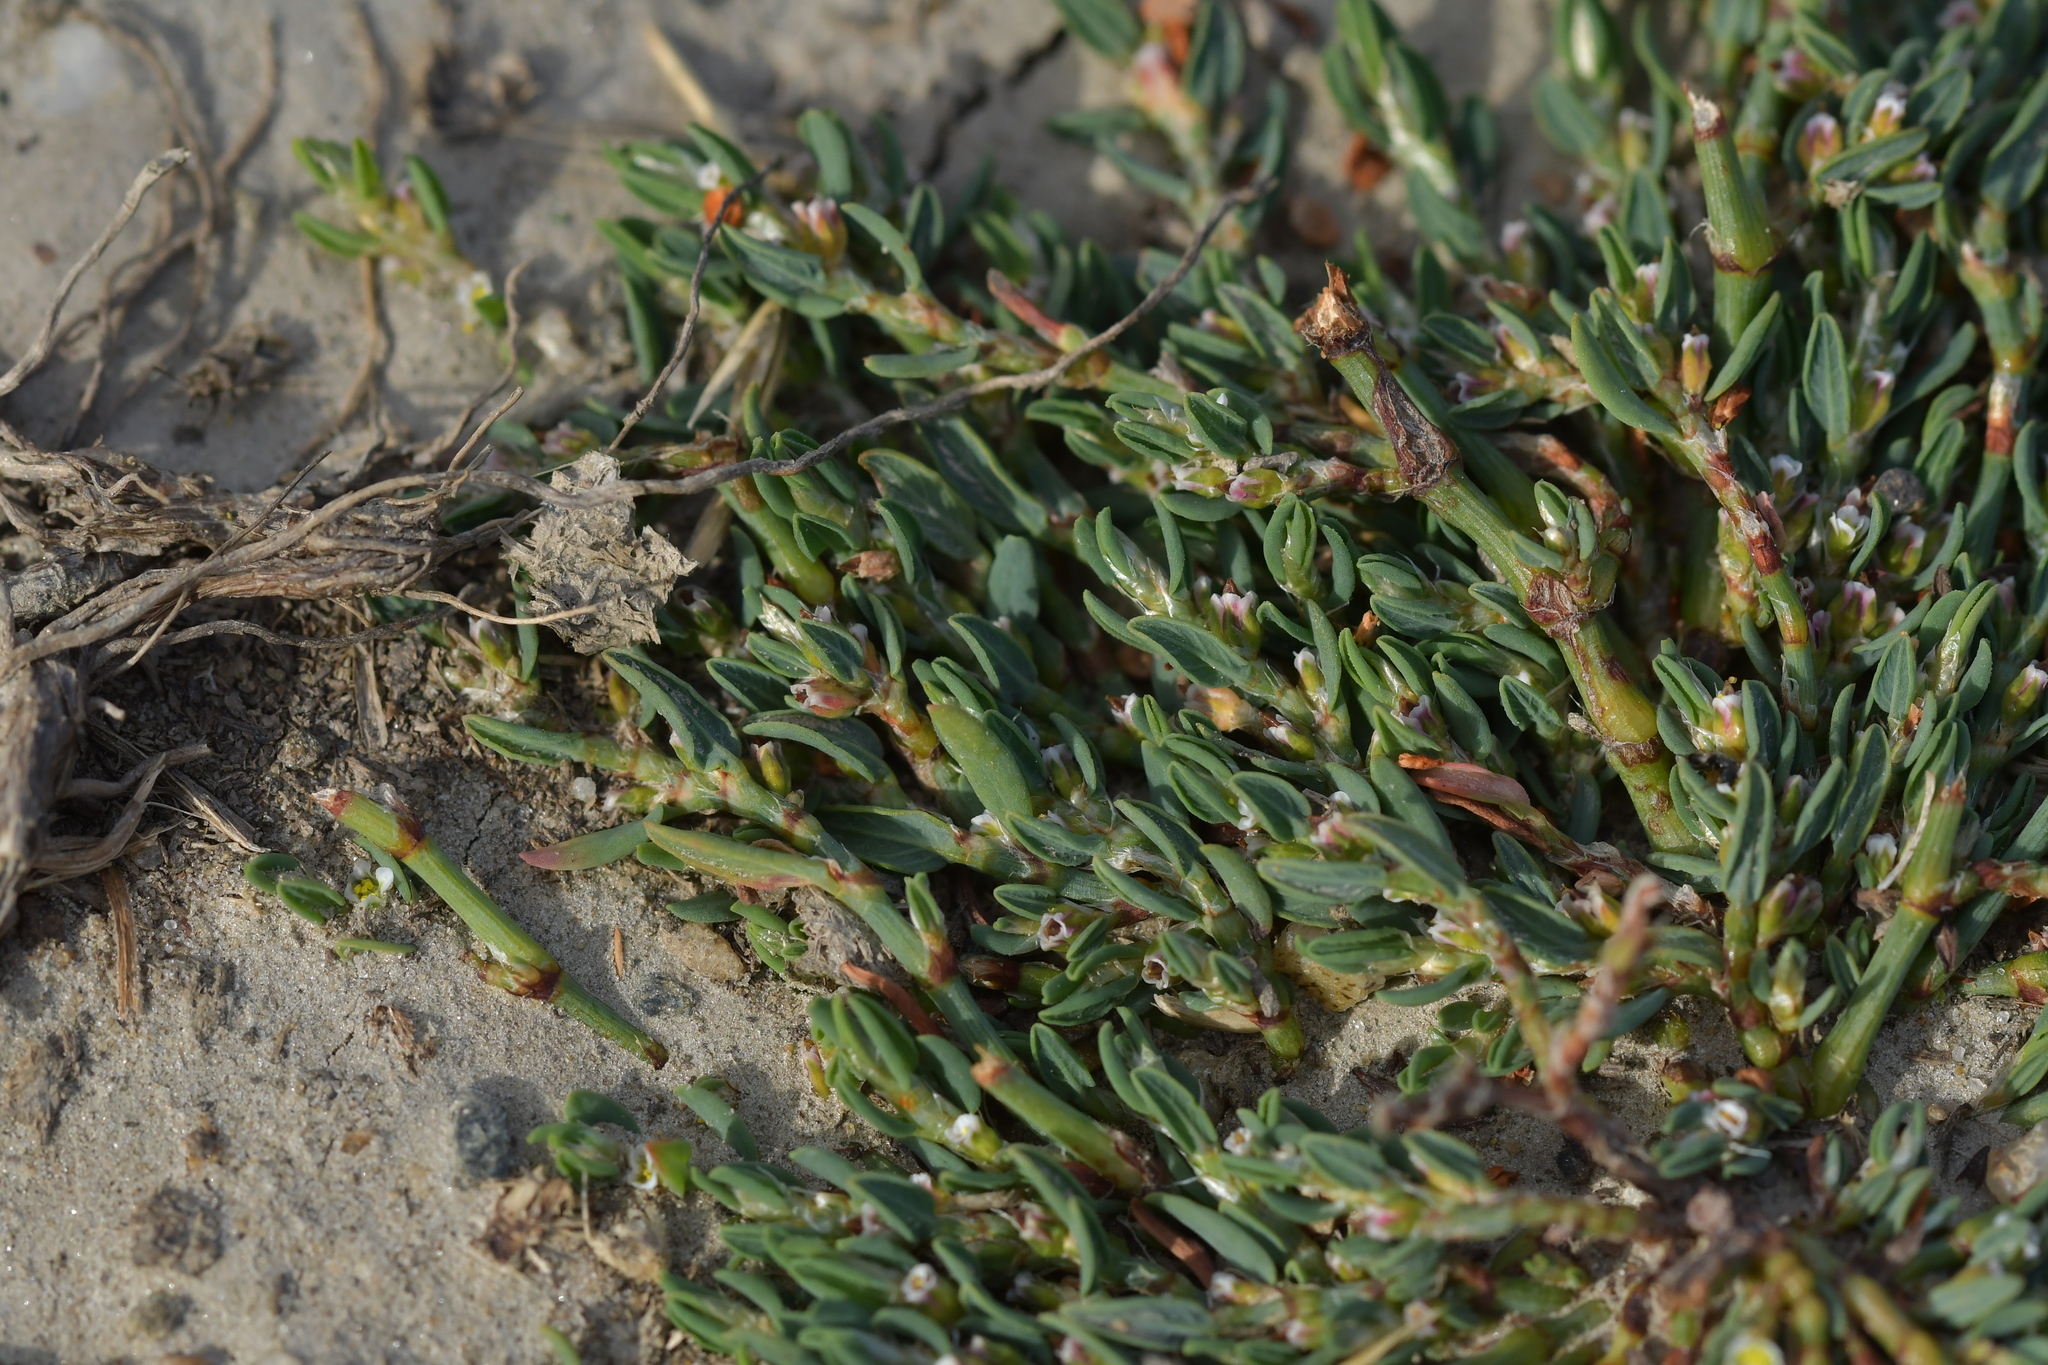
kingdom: Plantae
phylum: Tracheophyta
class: Magnoliopsida
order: Caryophyllales
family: Polygonaceae
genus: Polygonum
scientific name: Polygonum arenastrum
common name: Equal-leaved knotgrass
